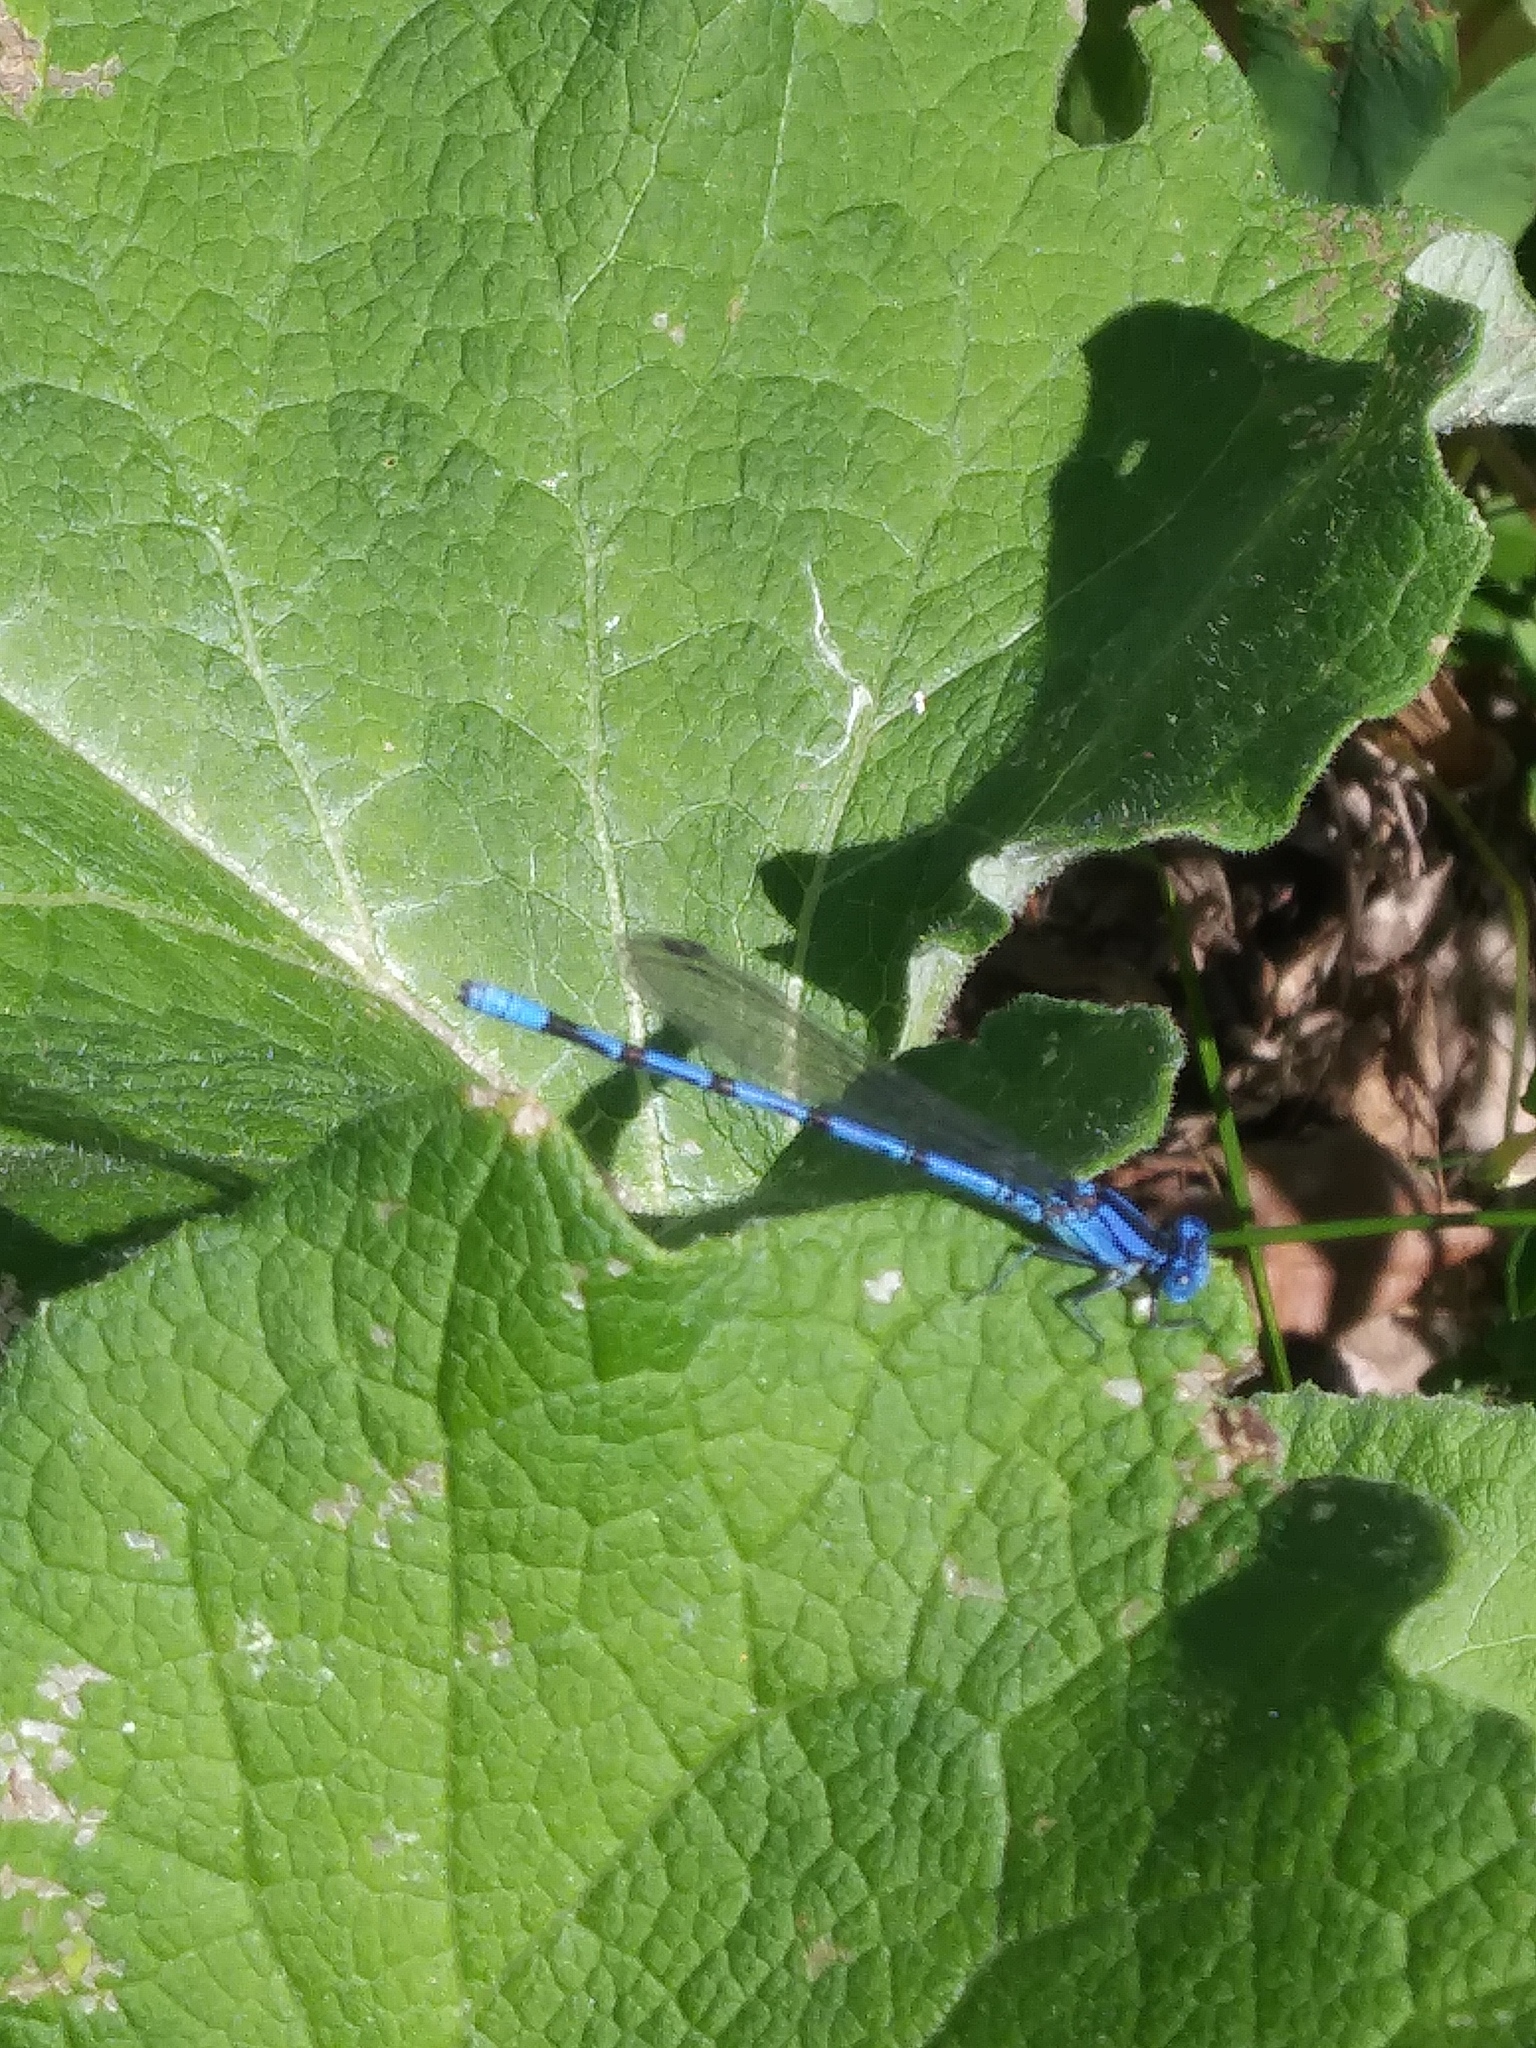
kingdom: Animalia
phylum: Arthropoda
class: Insecta
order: Odonata
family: Coenagrionidae
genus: Argia
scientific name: Argia funebris
